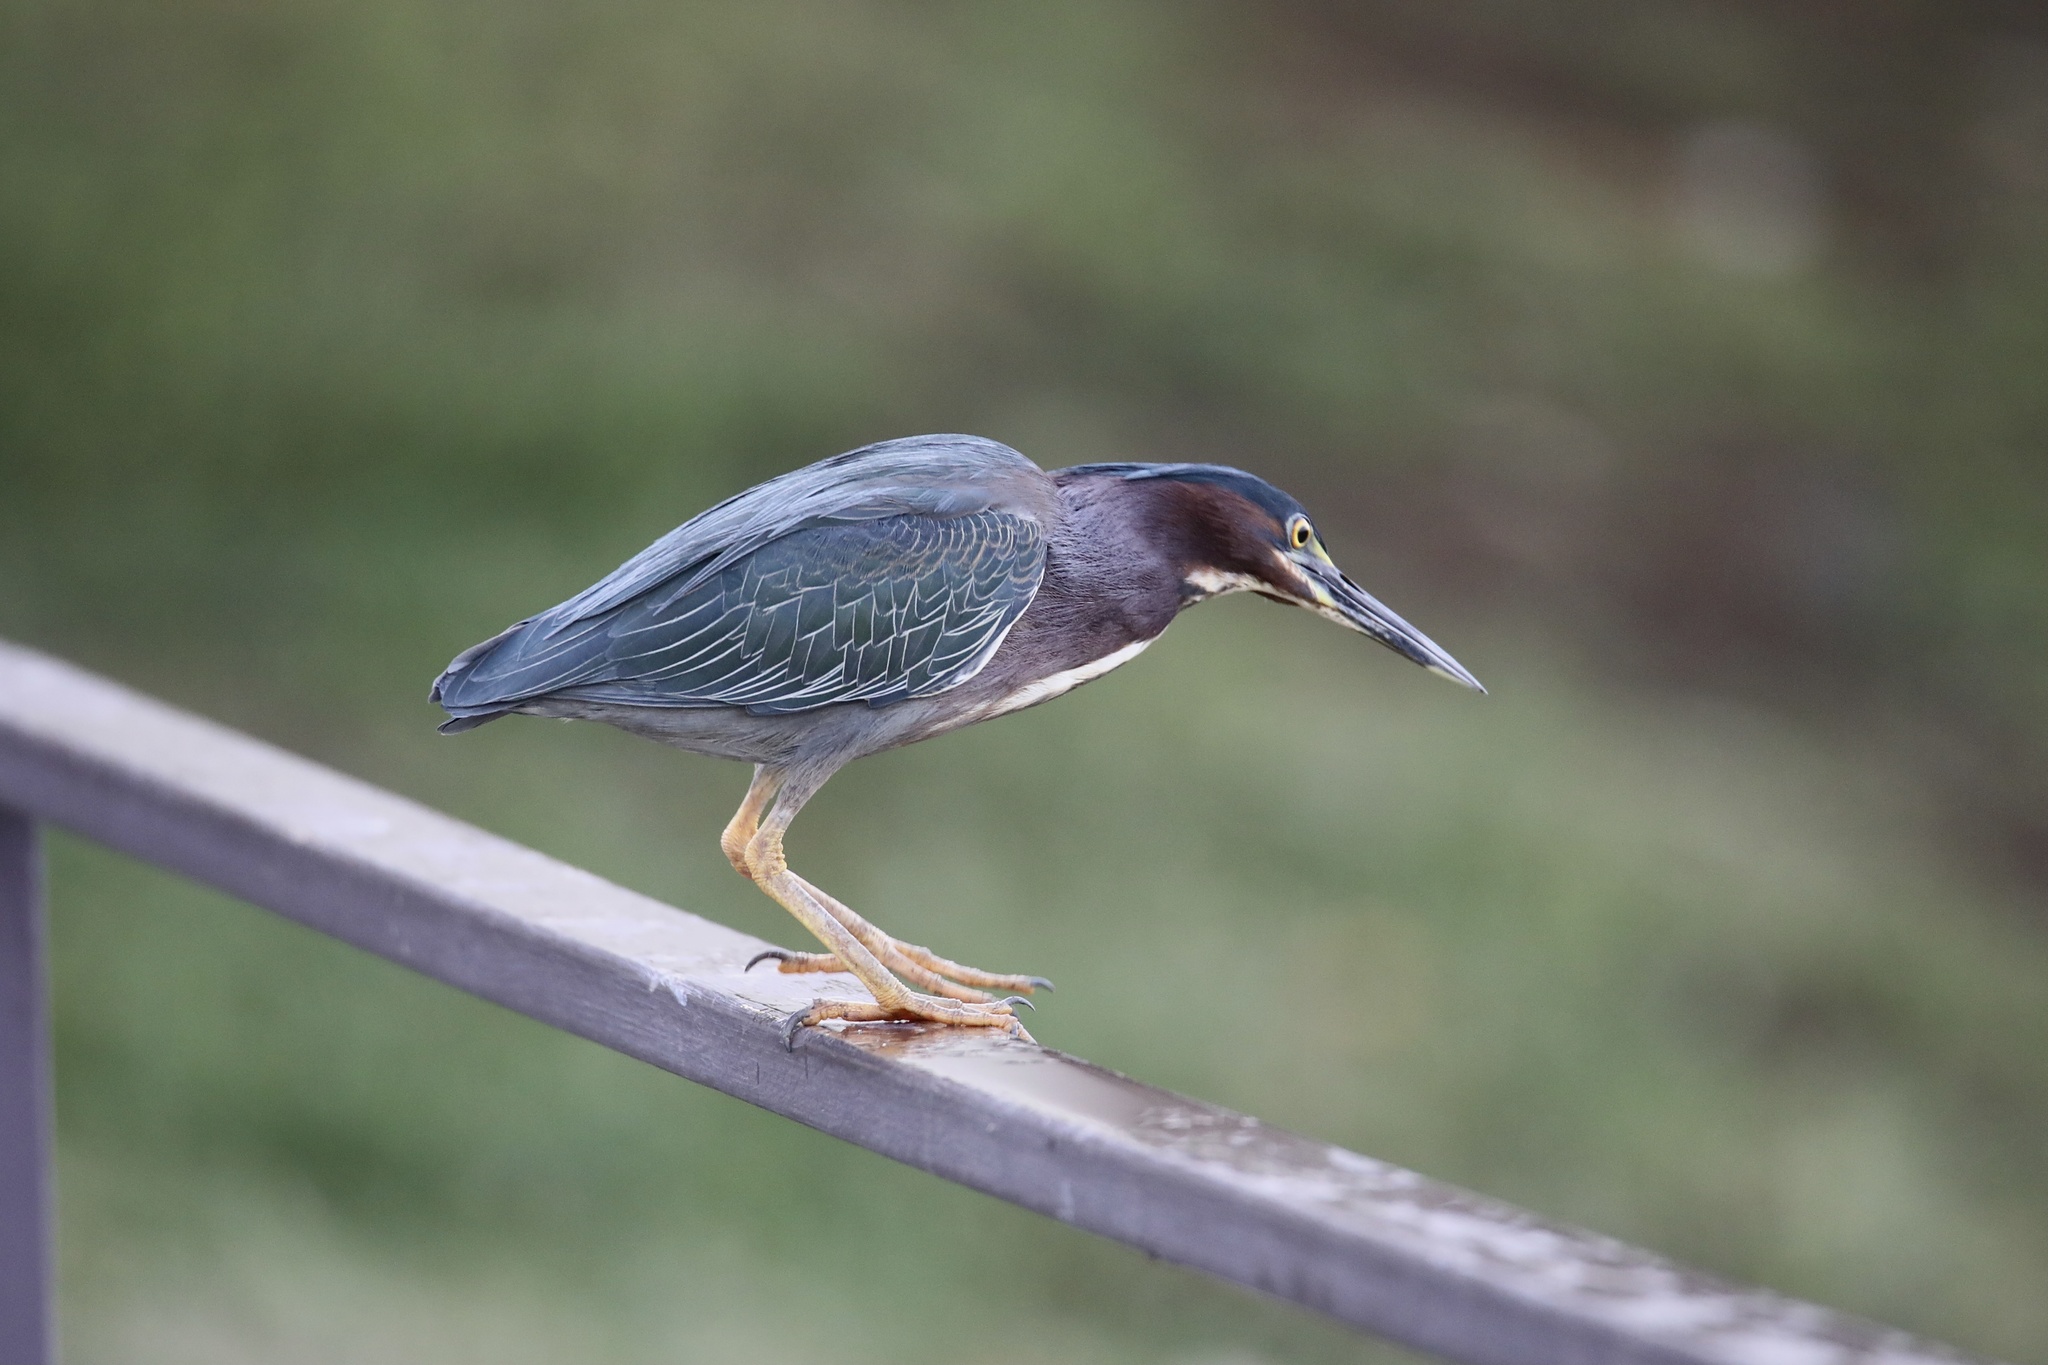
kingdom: Animalia
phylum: Chordata
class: Aves
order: Pelecaniformes
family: Ardeidae
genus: Butorides
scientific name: Butorides virescens
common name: Green heron
